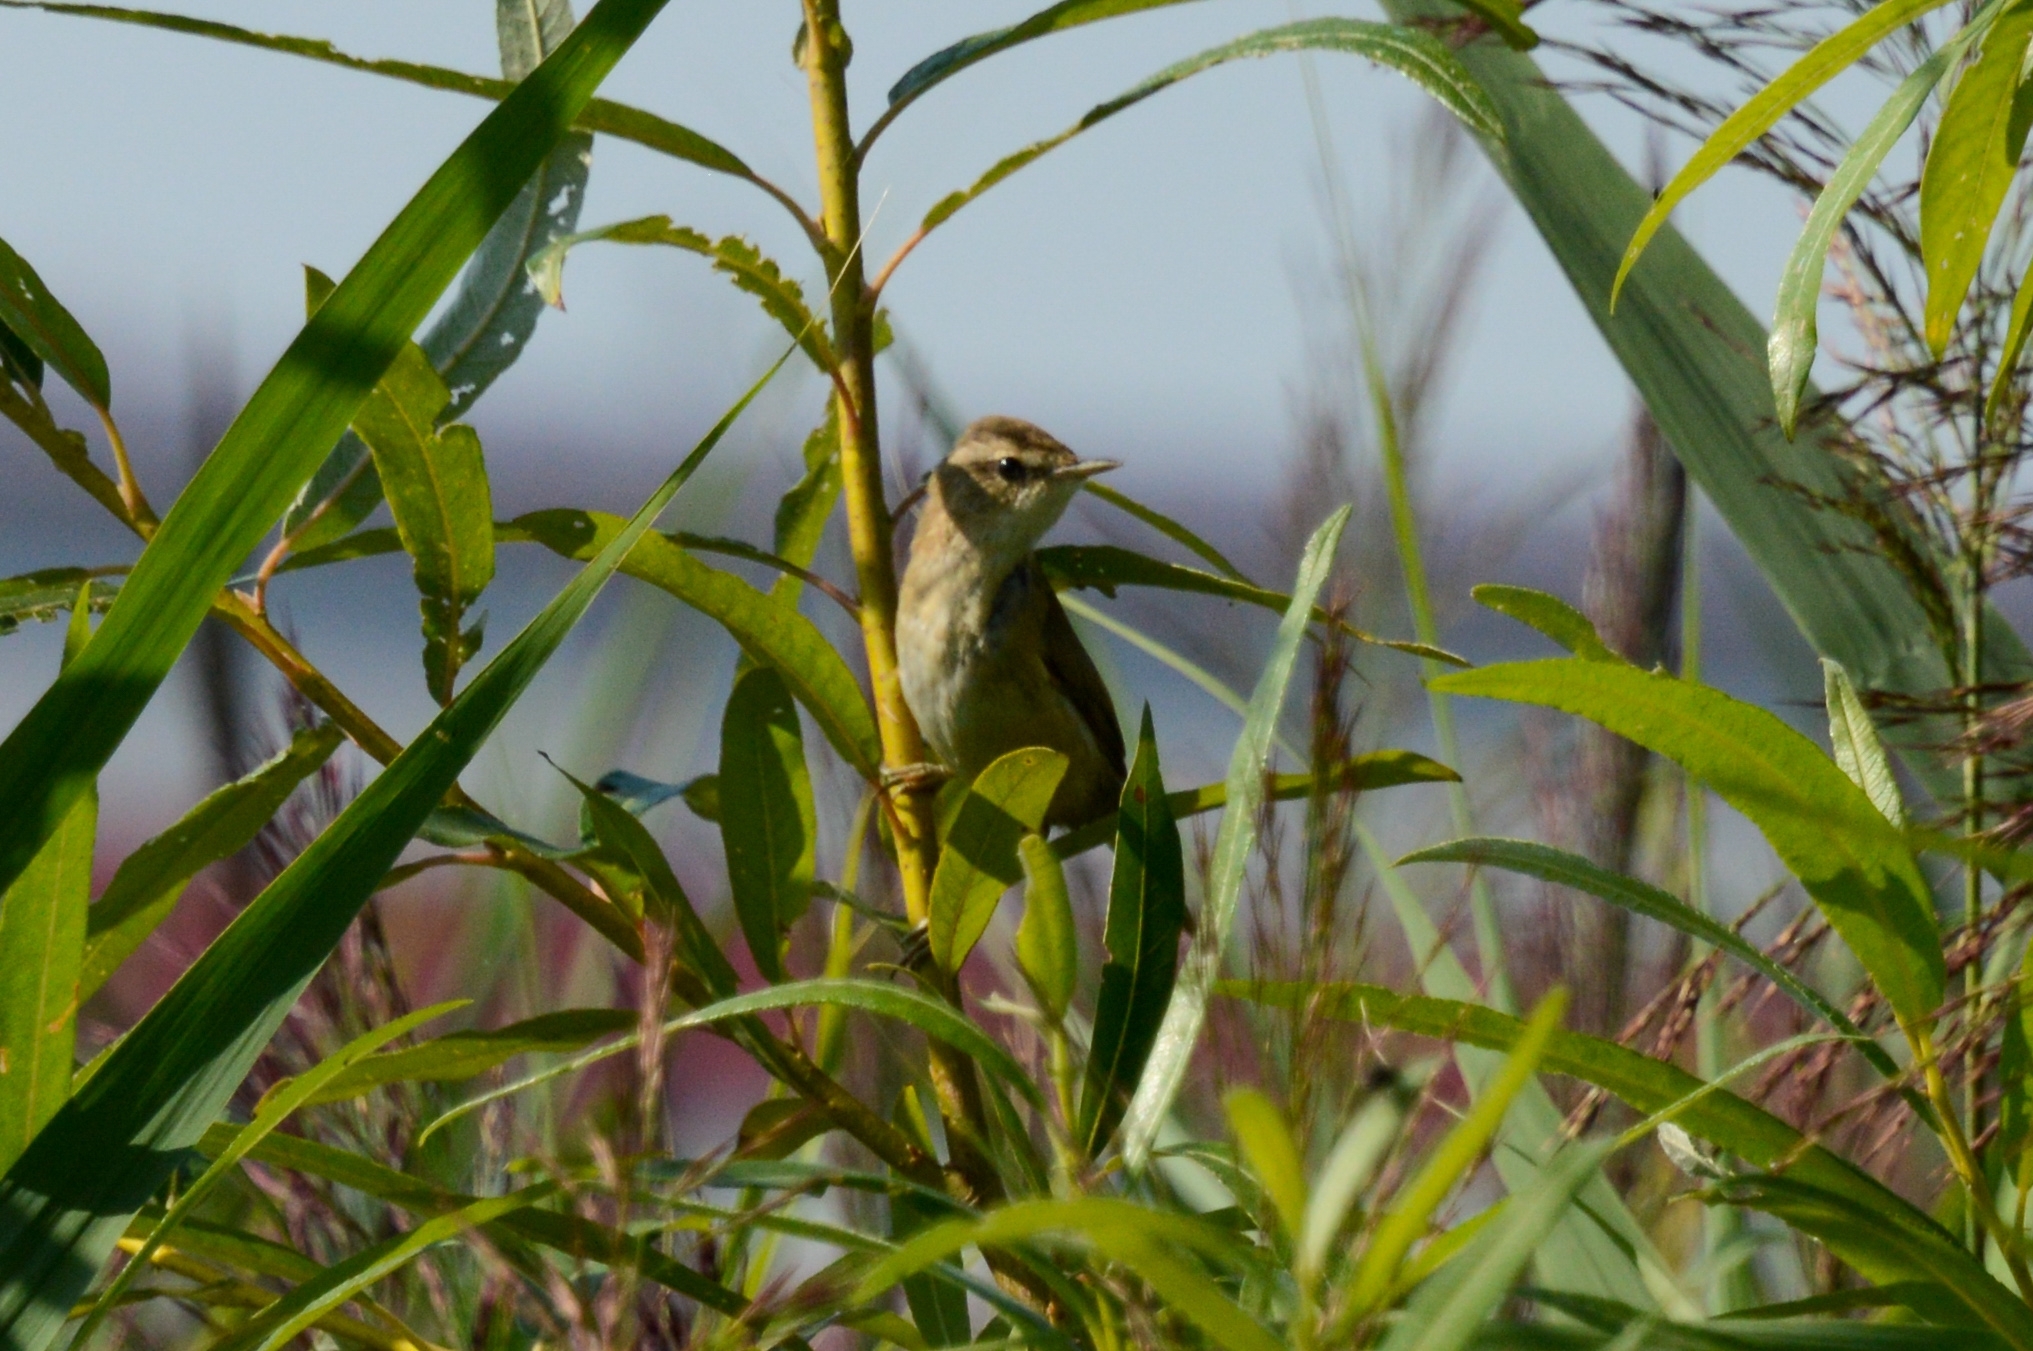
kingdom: Animalia
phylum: Chordata
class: Aves
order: Passeriformes
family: Acrocephalidae
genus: Acrocephalus
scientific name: Acrocephalus schoenobaenus
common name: Sedge warbler
